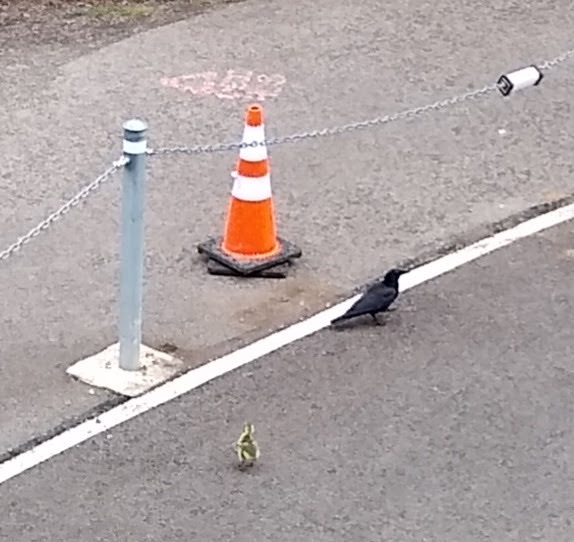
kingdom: Animalia
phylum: Chordata
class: Aves
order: Passeriformes
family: Corvidae
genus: Corvus
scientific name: Corvus brachyrhynchos
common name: American crow
